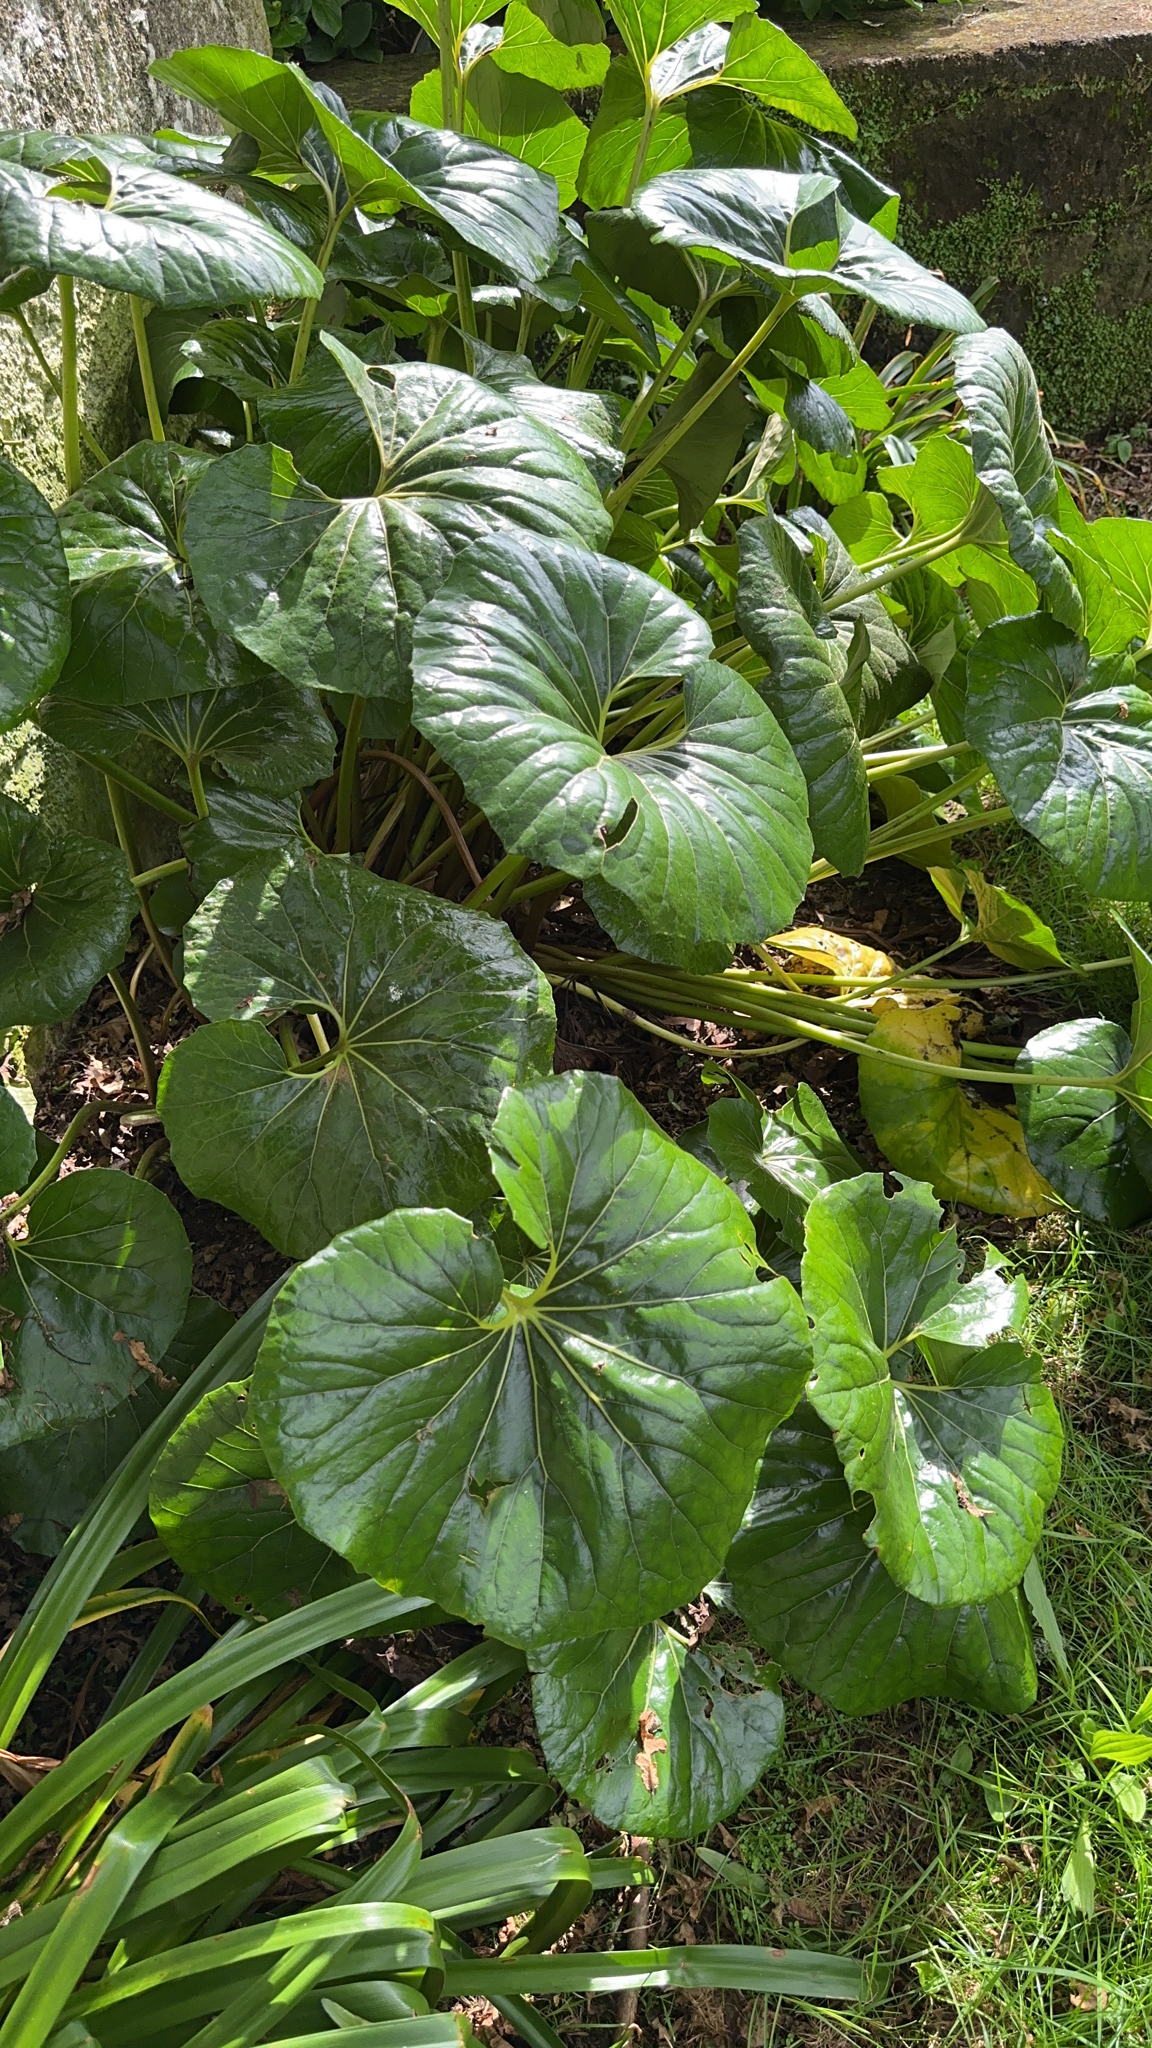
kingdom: Plantae
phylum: Tracheophyta
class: Magnoliopsida
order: Asterales
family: Asteraceae
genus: Farfugium
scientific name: Farfugium japonicum
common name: Leopardplant
